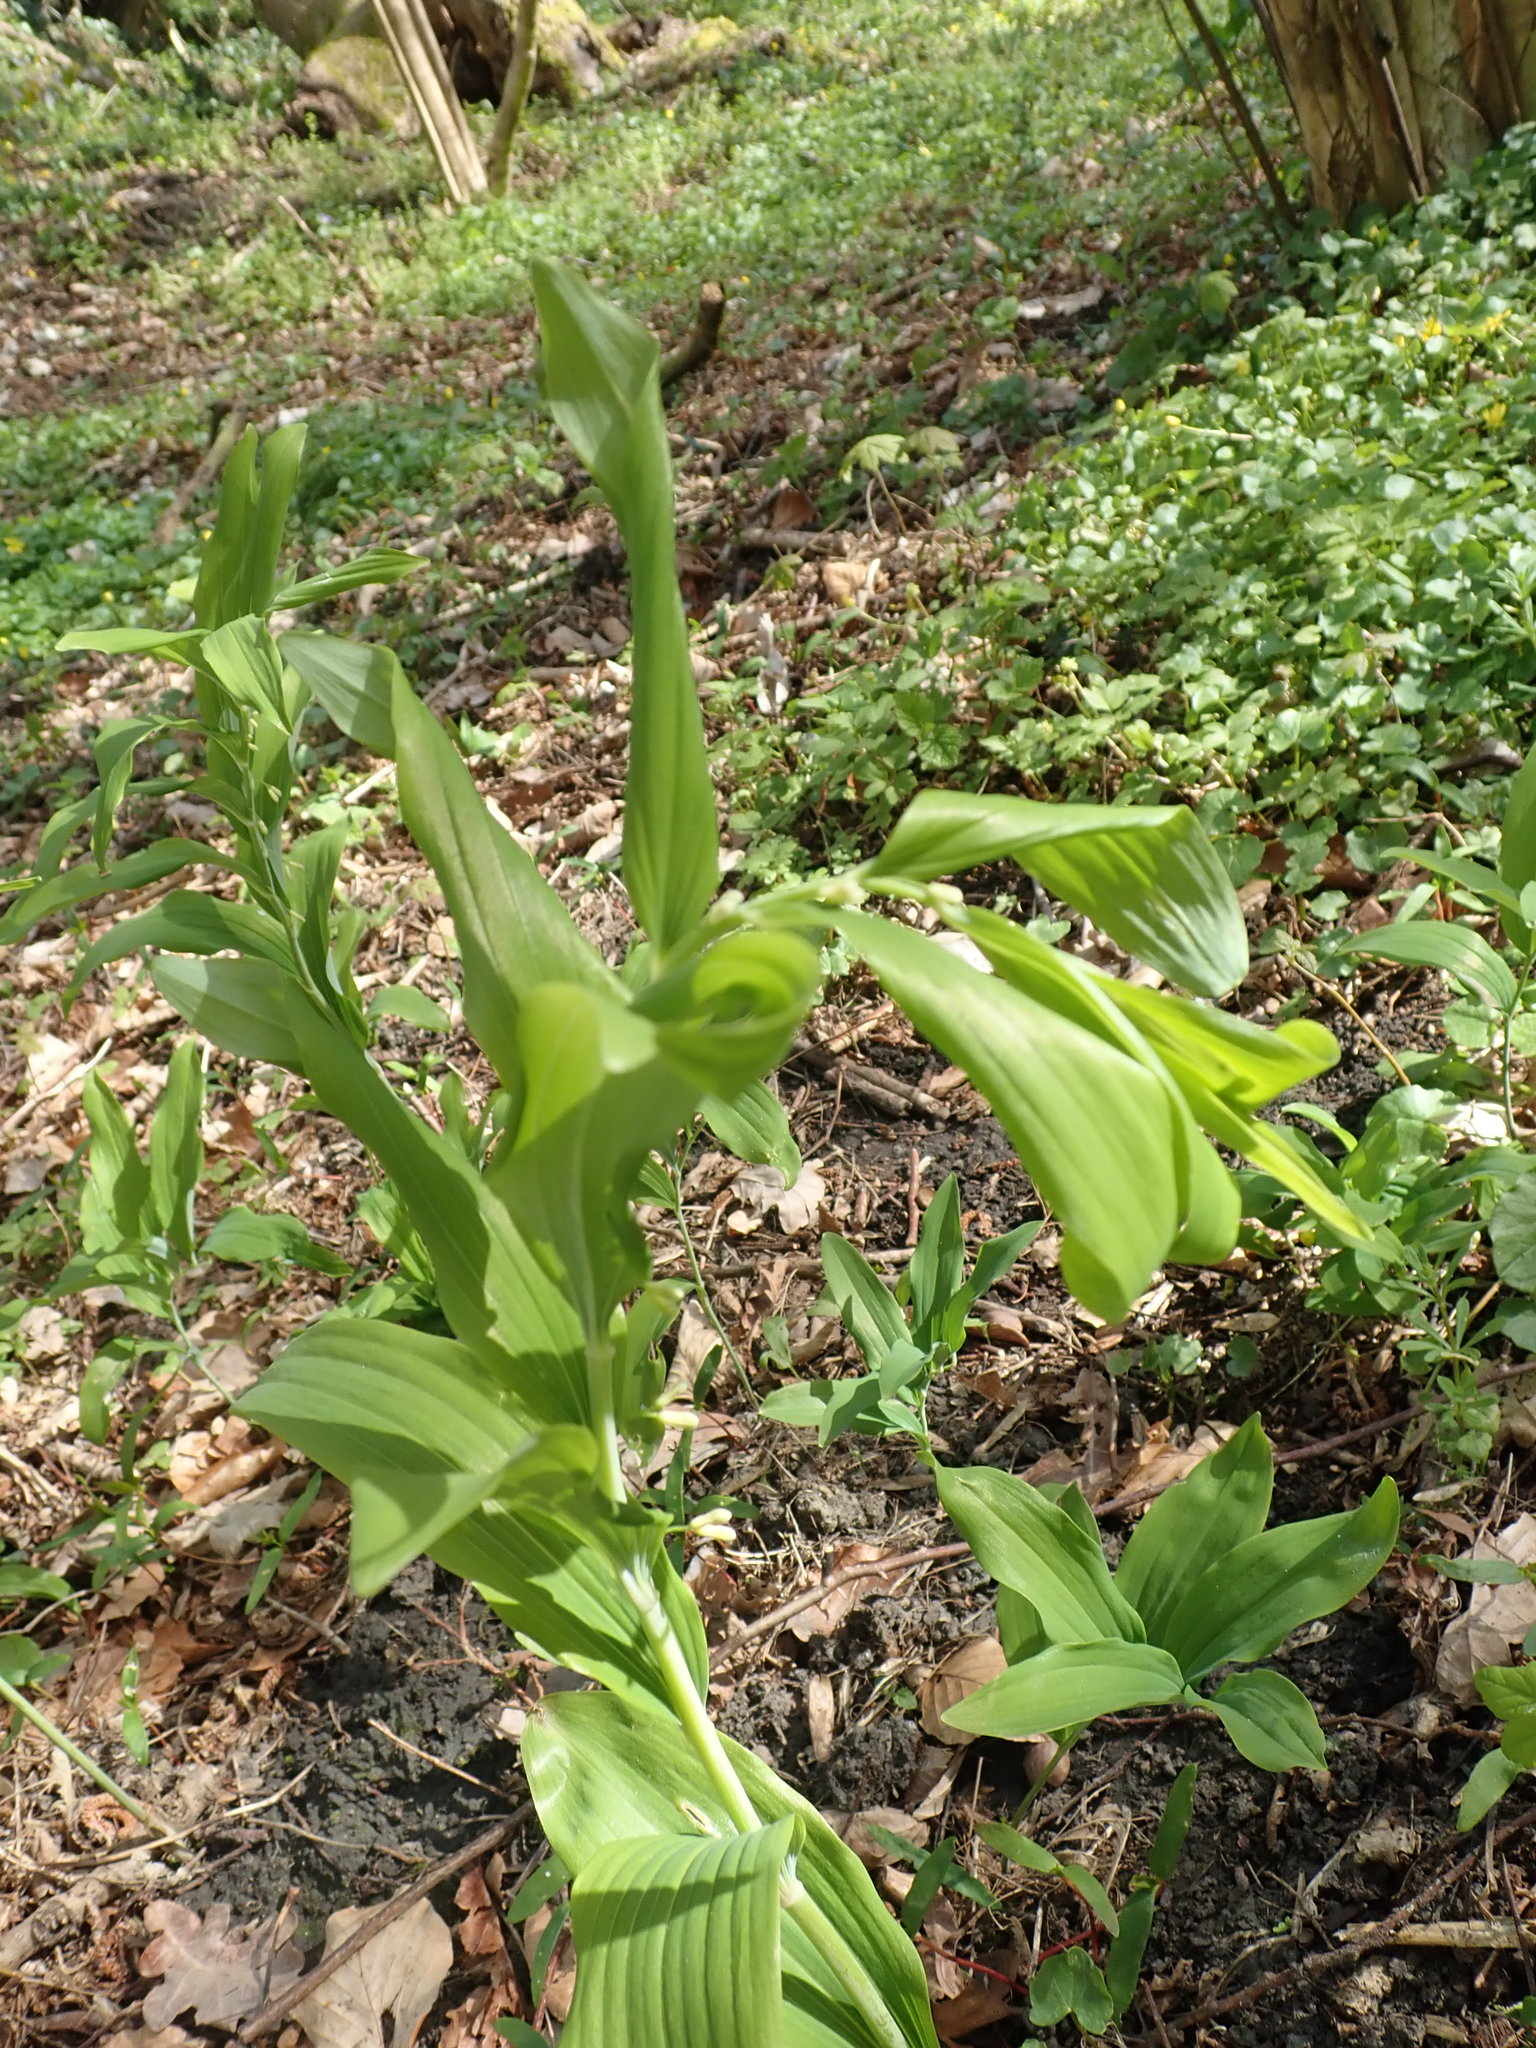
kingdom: Plantae
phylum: Tracheophyta
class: Liliopsida
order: Asparagales
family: Asparagaceae
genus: Polygonatum
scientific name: Polygonatum multiflorum
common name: Solomon's-seal
